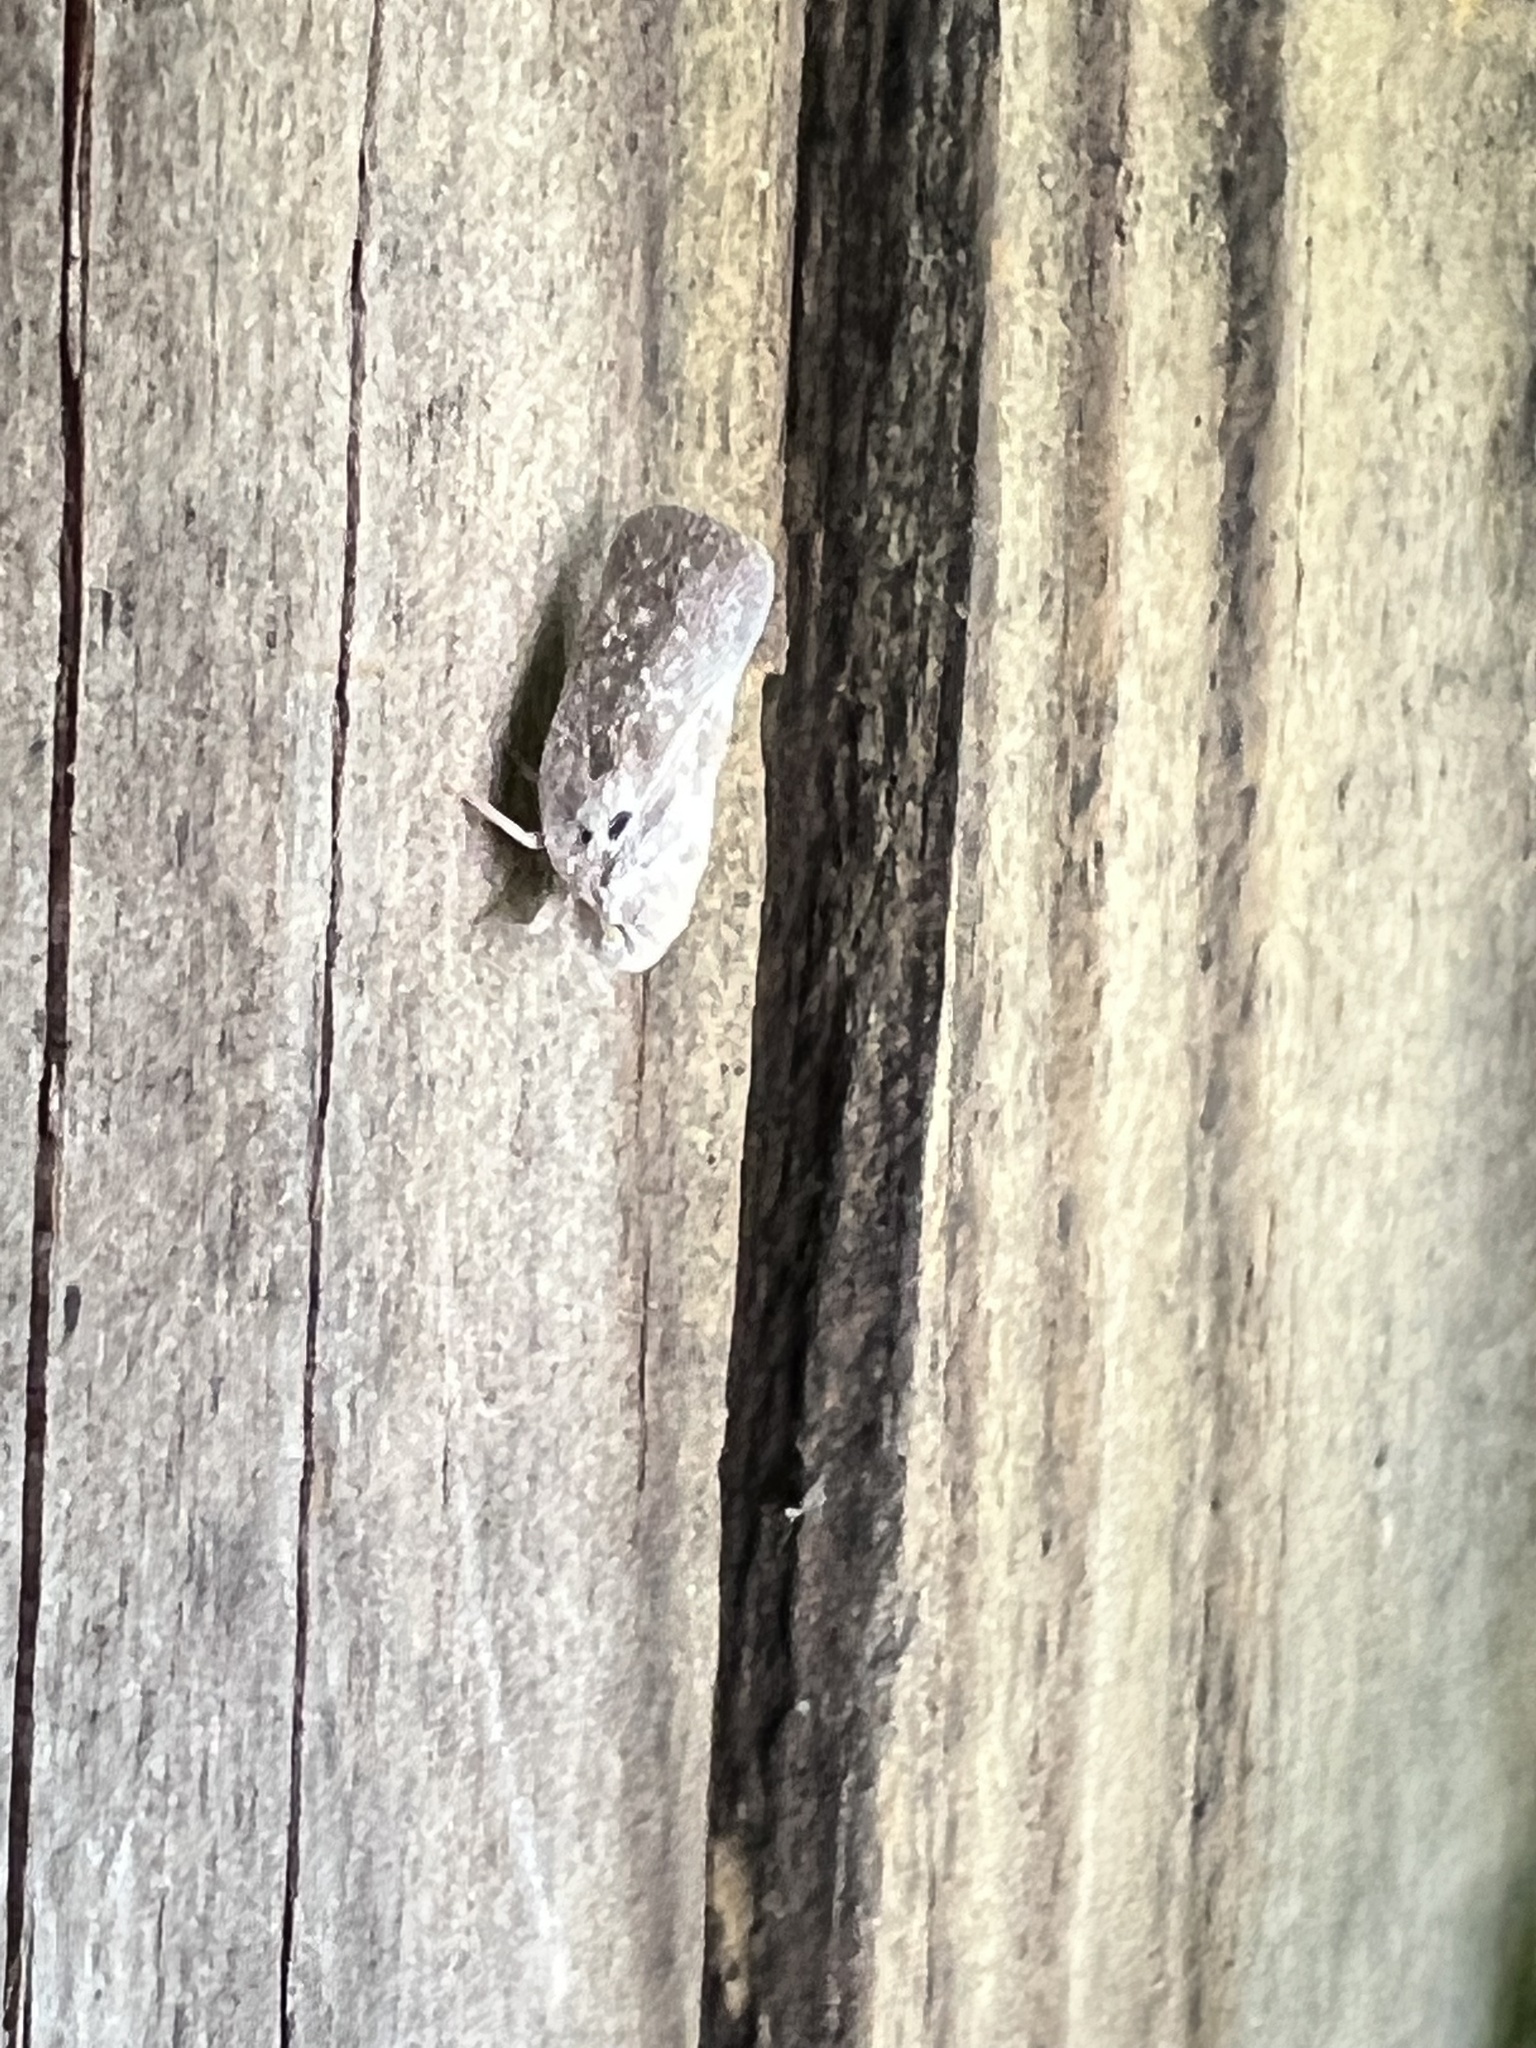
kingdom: Animalia
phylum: Arthropoda
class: Insecta
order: Hemiptera
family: Flatidae
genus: Metcalfa
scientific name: Metcalfa pruinosa
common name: Citrus flatid planthopper
